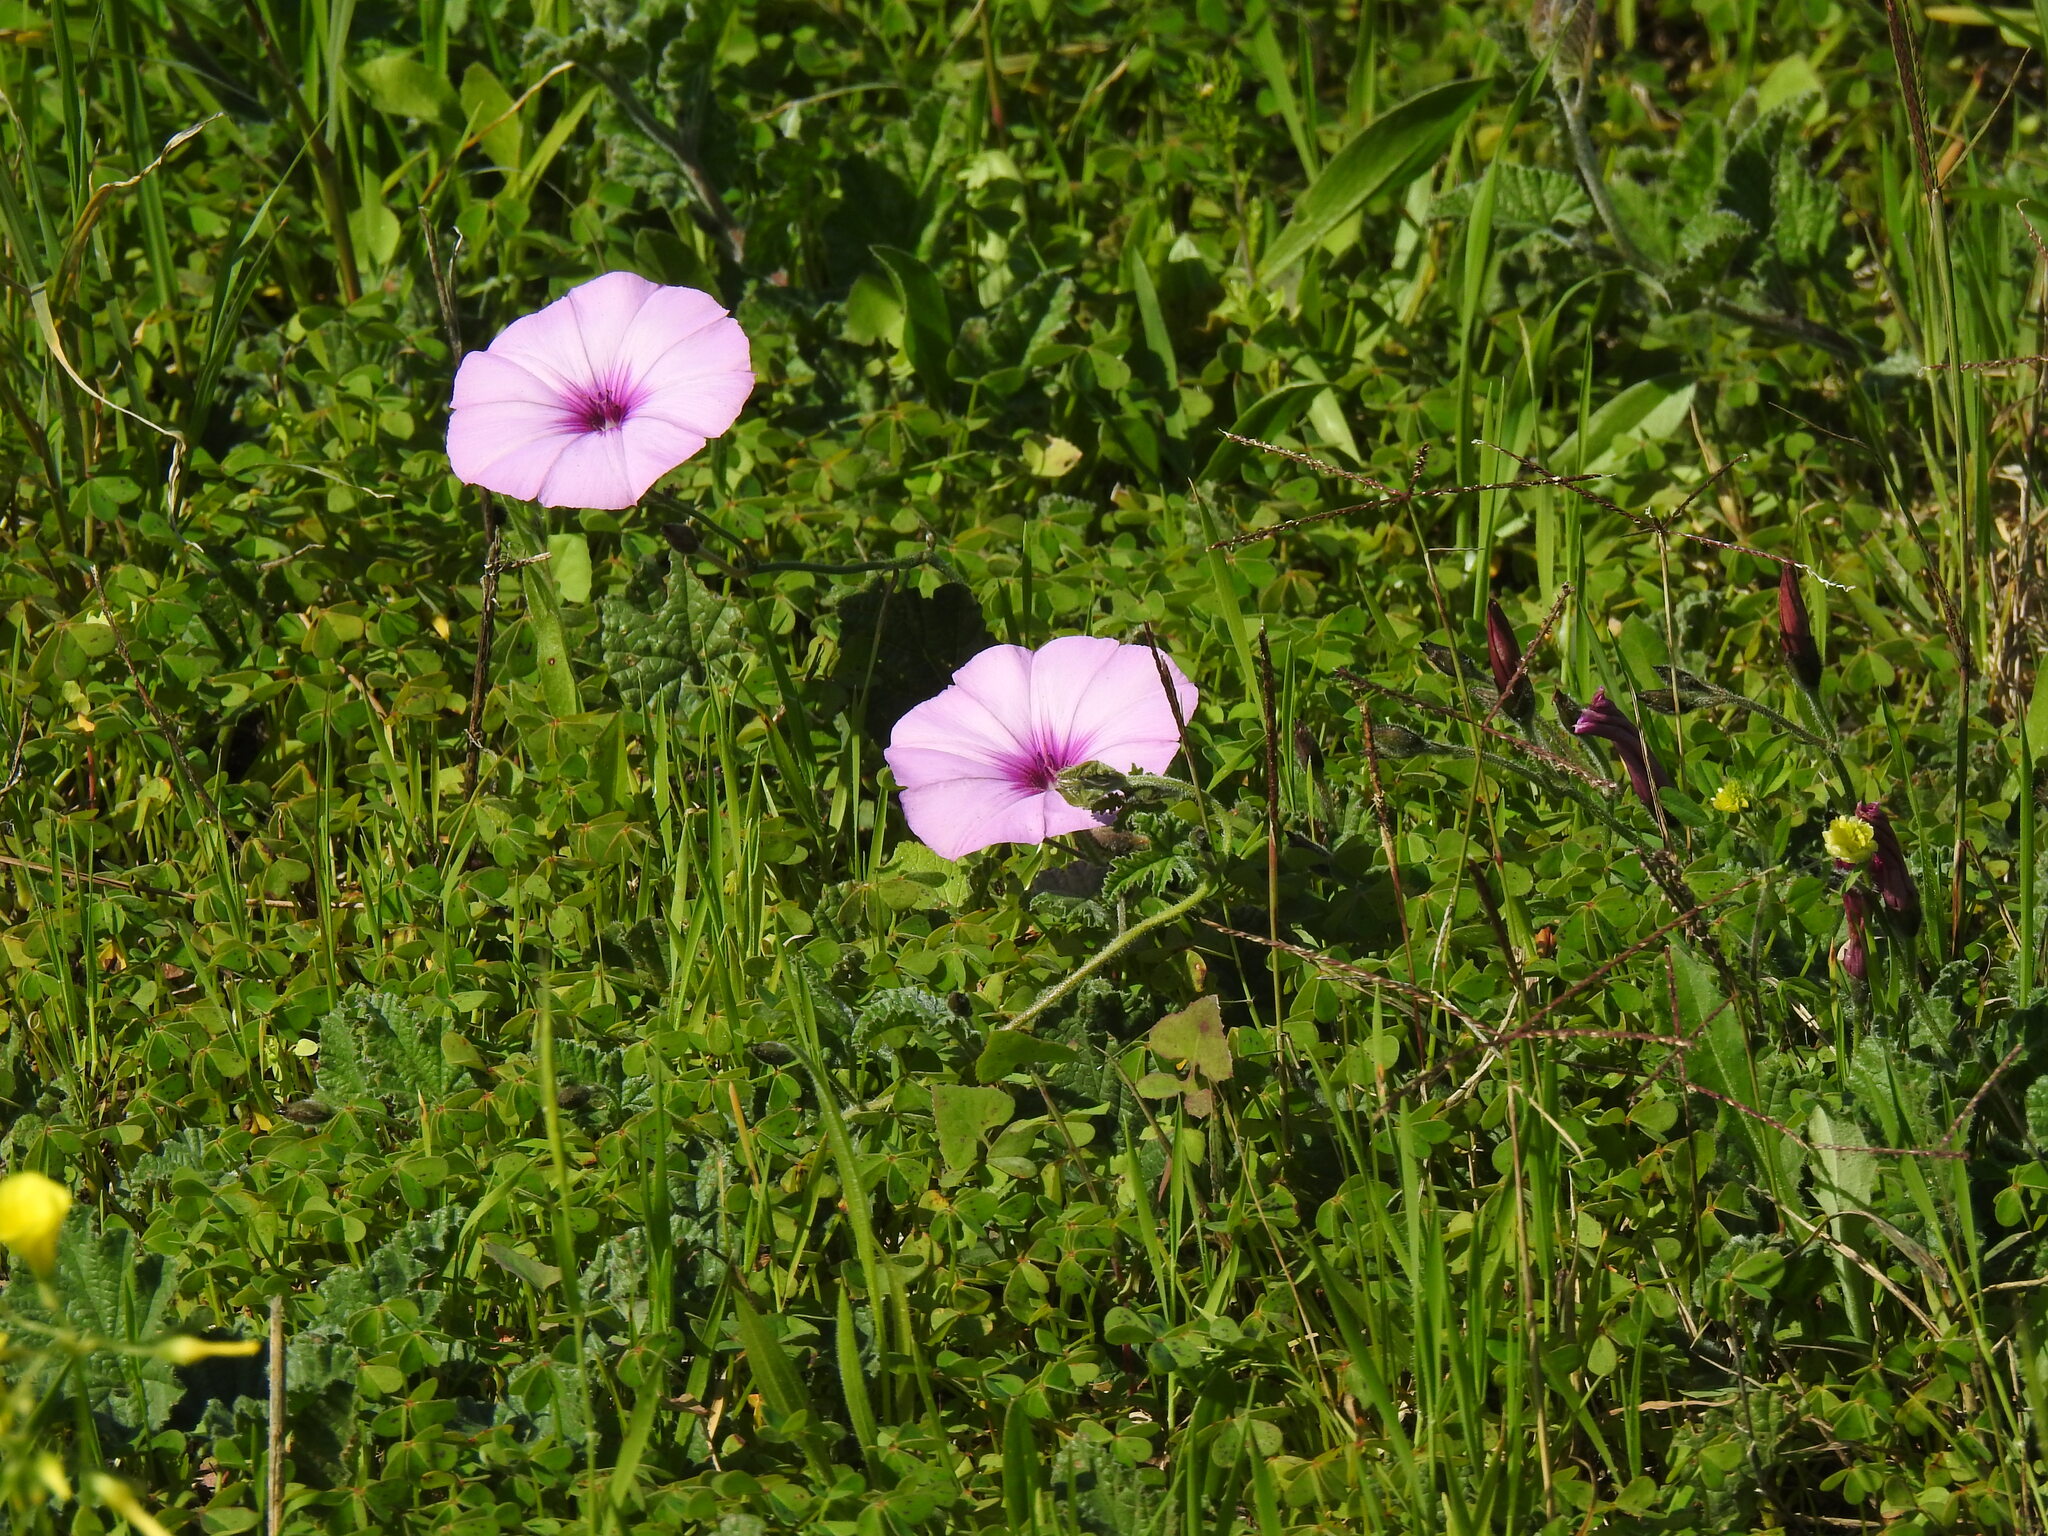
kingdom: Plantae
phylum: Tracheophyta
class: Magnoliopsida
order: Solanales
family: Convolvulaceae
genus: Convolvulus
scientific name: Convolvulus althaeoides
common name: Mallow bindweed
